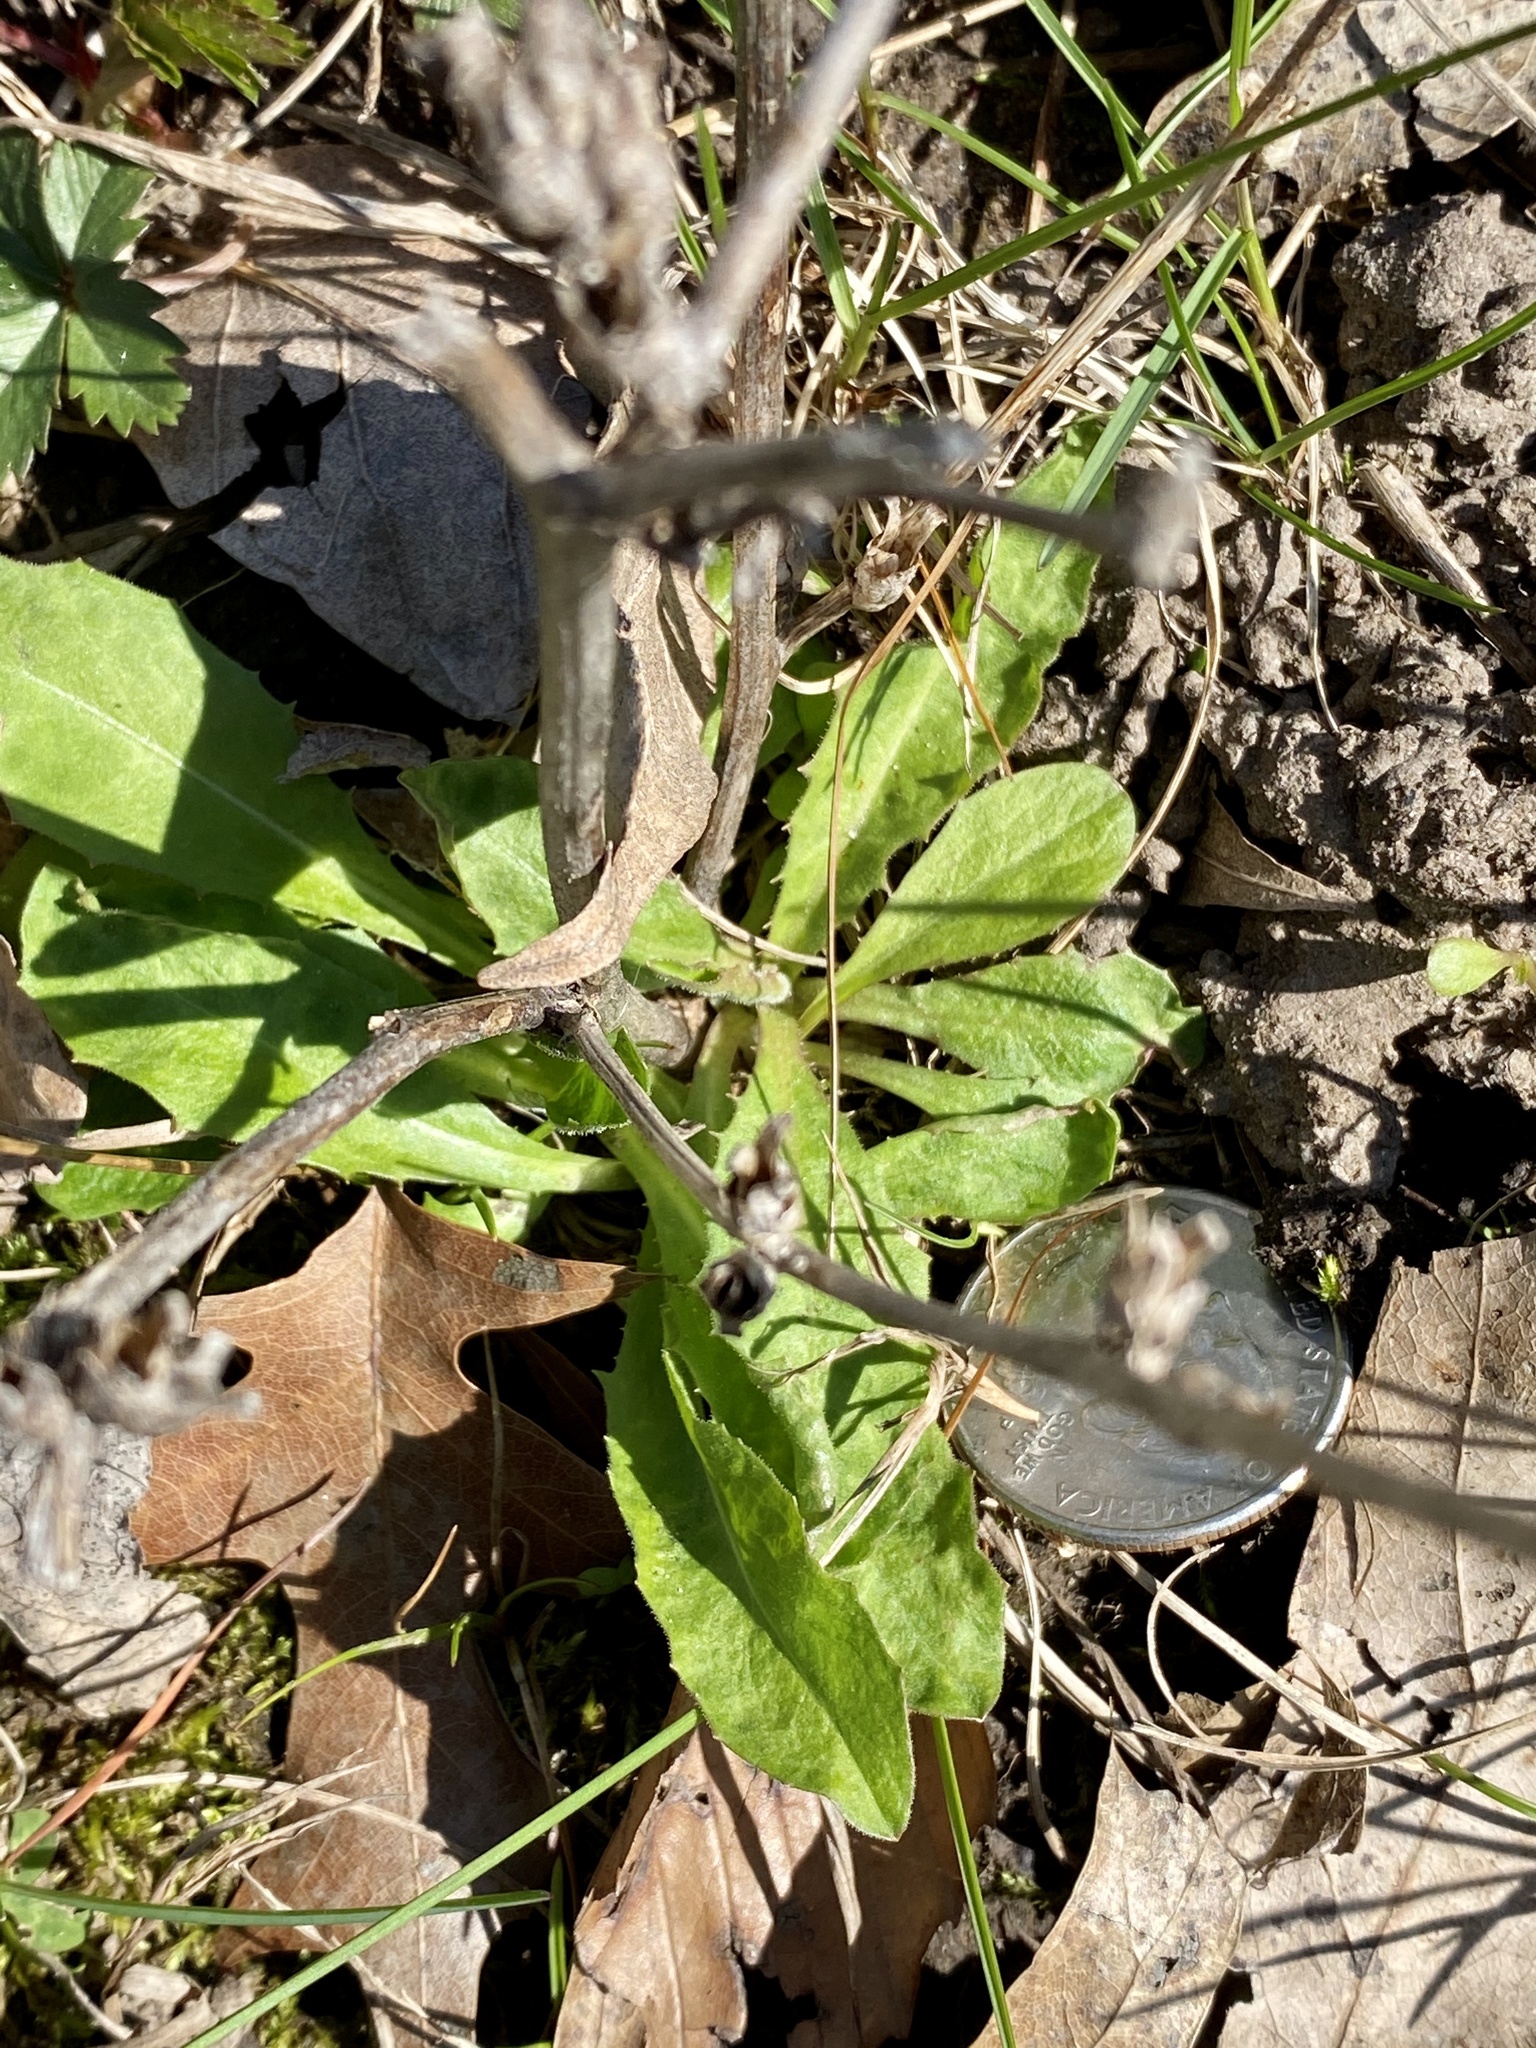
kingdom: Plantae
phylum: Tracheophyta
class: Magnoliopsida
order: Asterales
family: Asteraceae
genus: Cichorium
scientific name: Cichorium intybus
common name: Chicory
